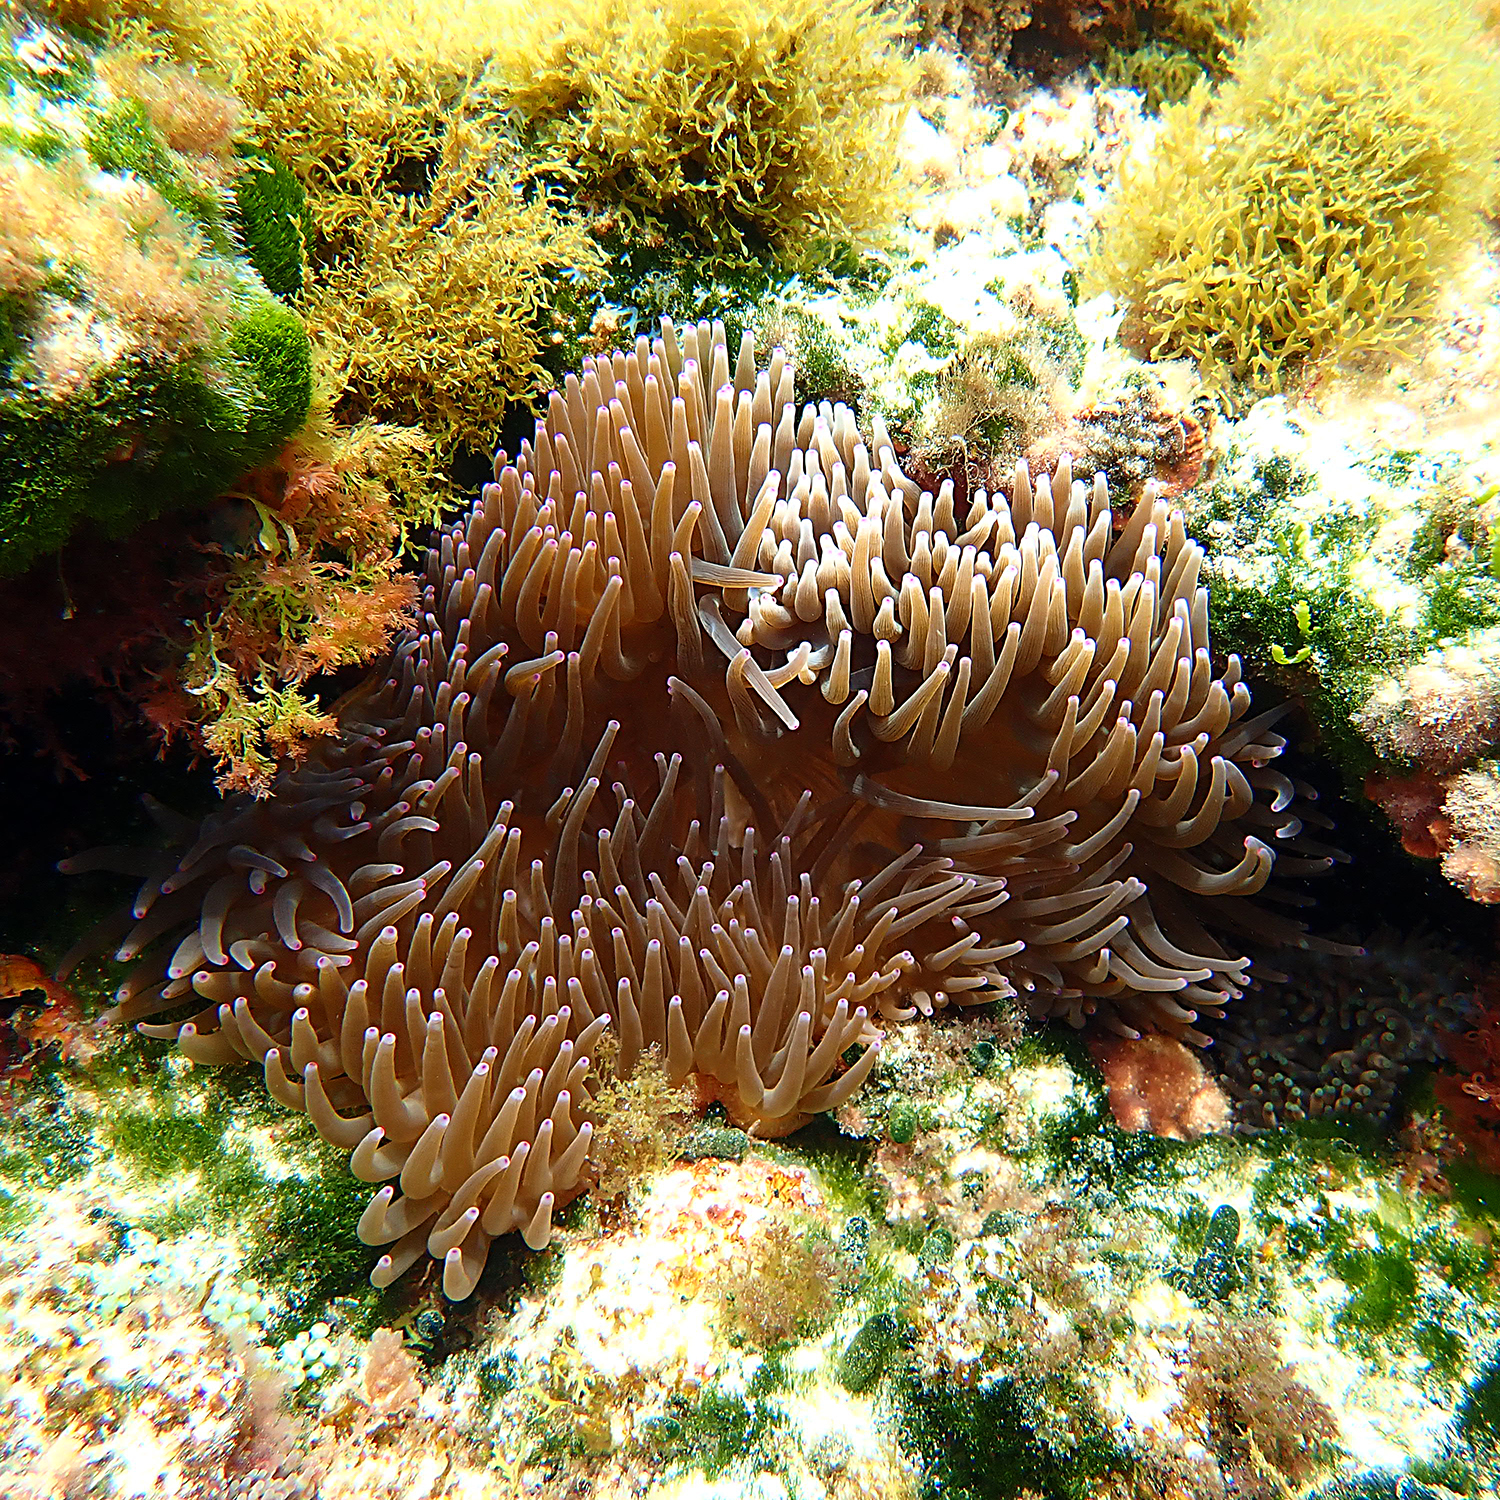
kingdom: Animalia
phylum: Cnidaria
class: Anthozoa
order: Actiniaria
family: Actiniidae
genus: Entacmaea
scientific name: Entacmaea quadricolor
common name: Bulb tentacle sea anemone
